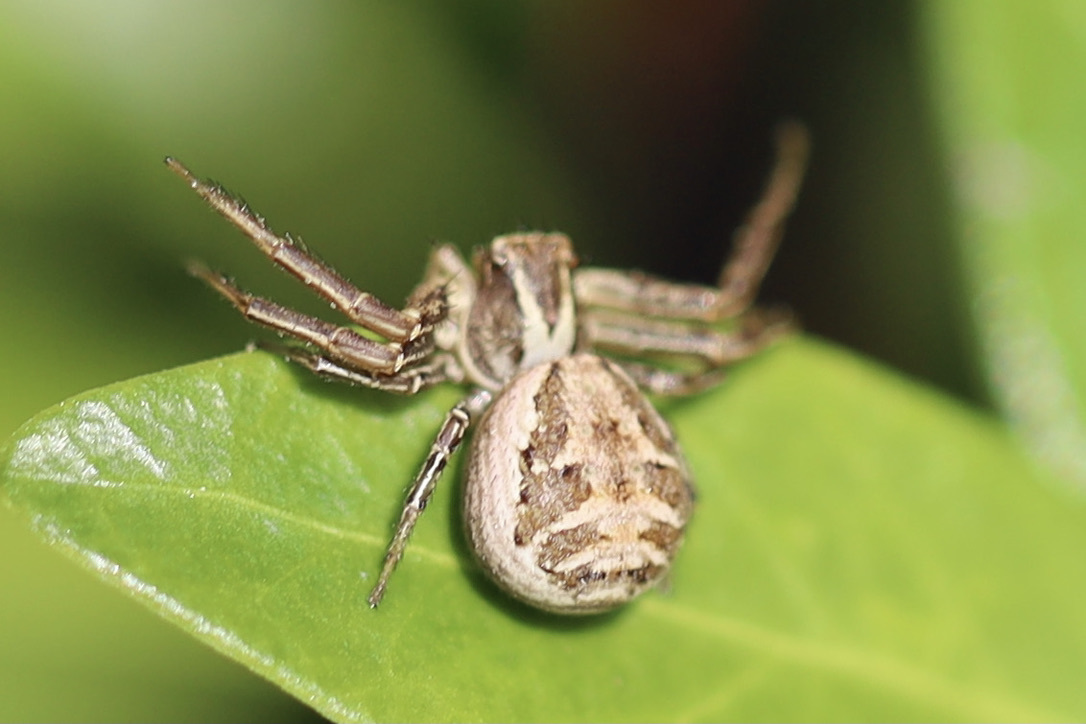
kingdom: Animalia
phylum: Arthropoda
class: Arachnida
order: Araneae
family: Thomisidae
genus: Xysticus
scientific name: Xysticus cristatus
